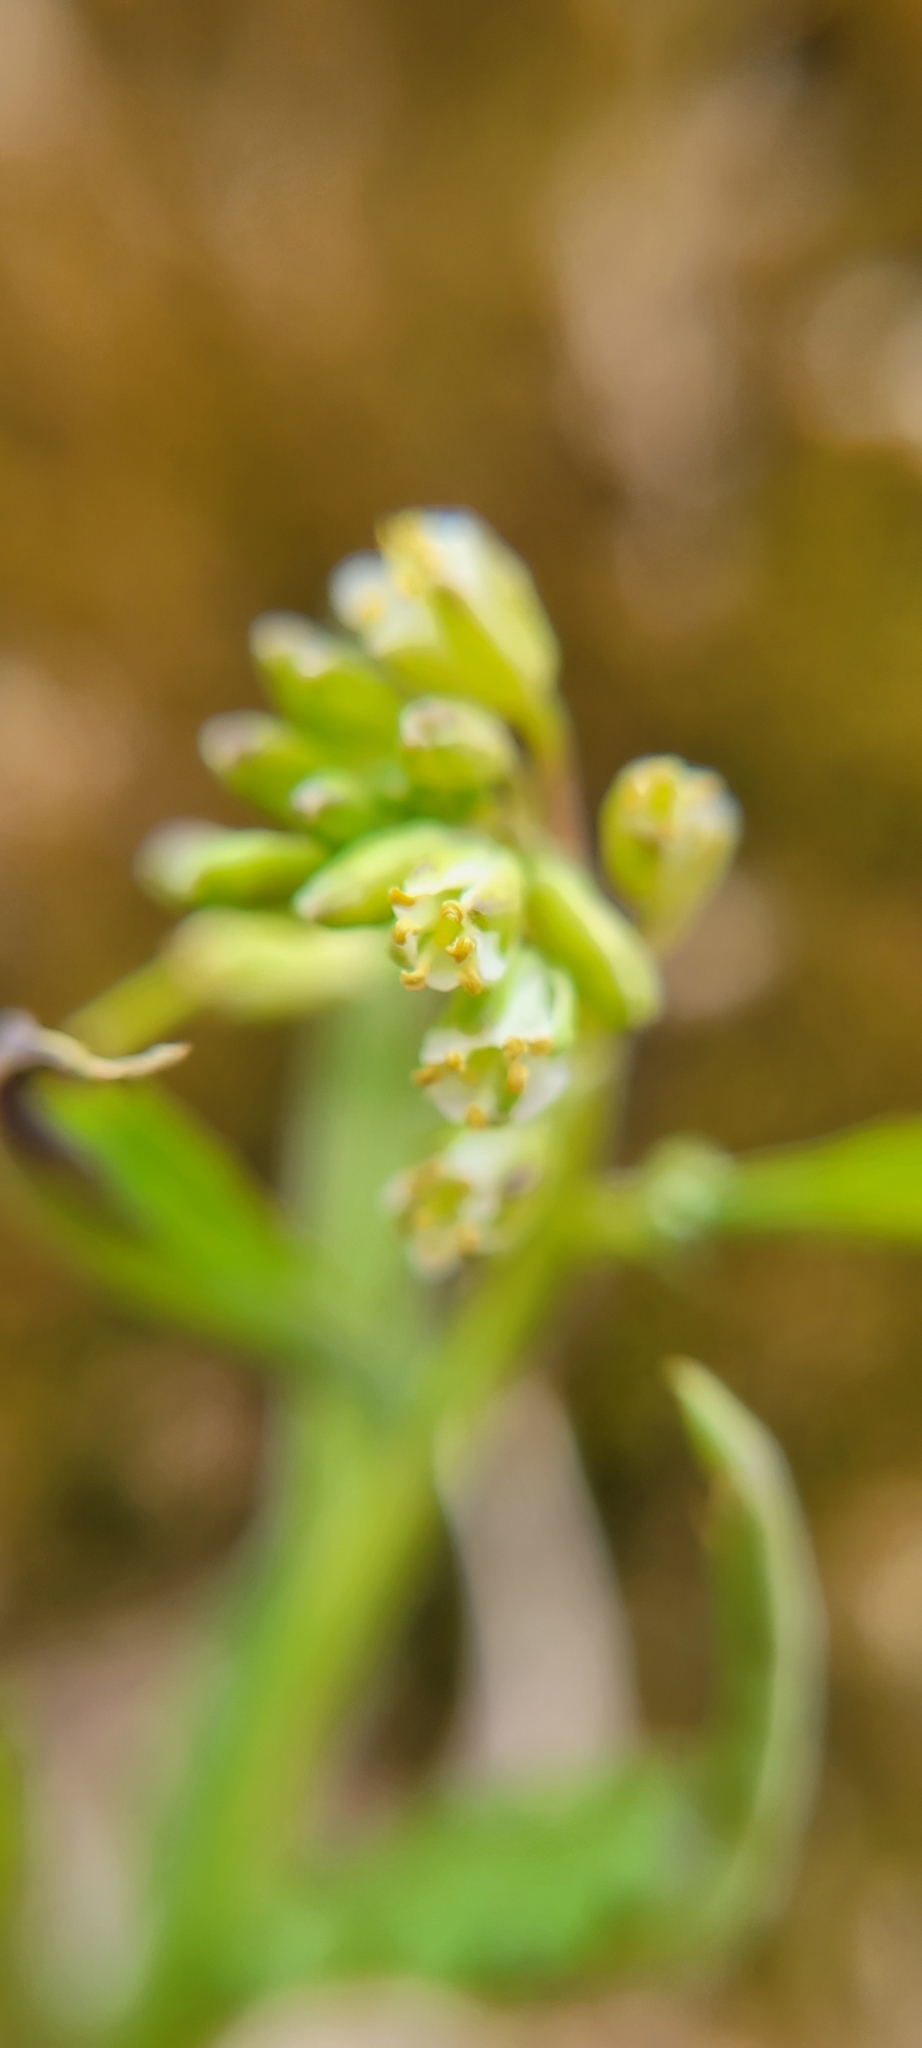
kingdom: Plantae
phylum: Tracheophyta
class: Magnoliopsida
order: Brassicales
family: Brassicaceae
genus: Borodinia
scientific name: Borodinia laevigata
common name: Smooth rockcress
